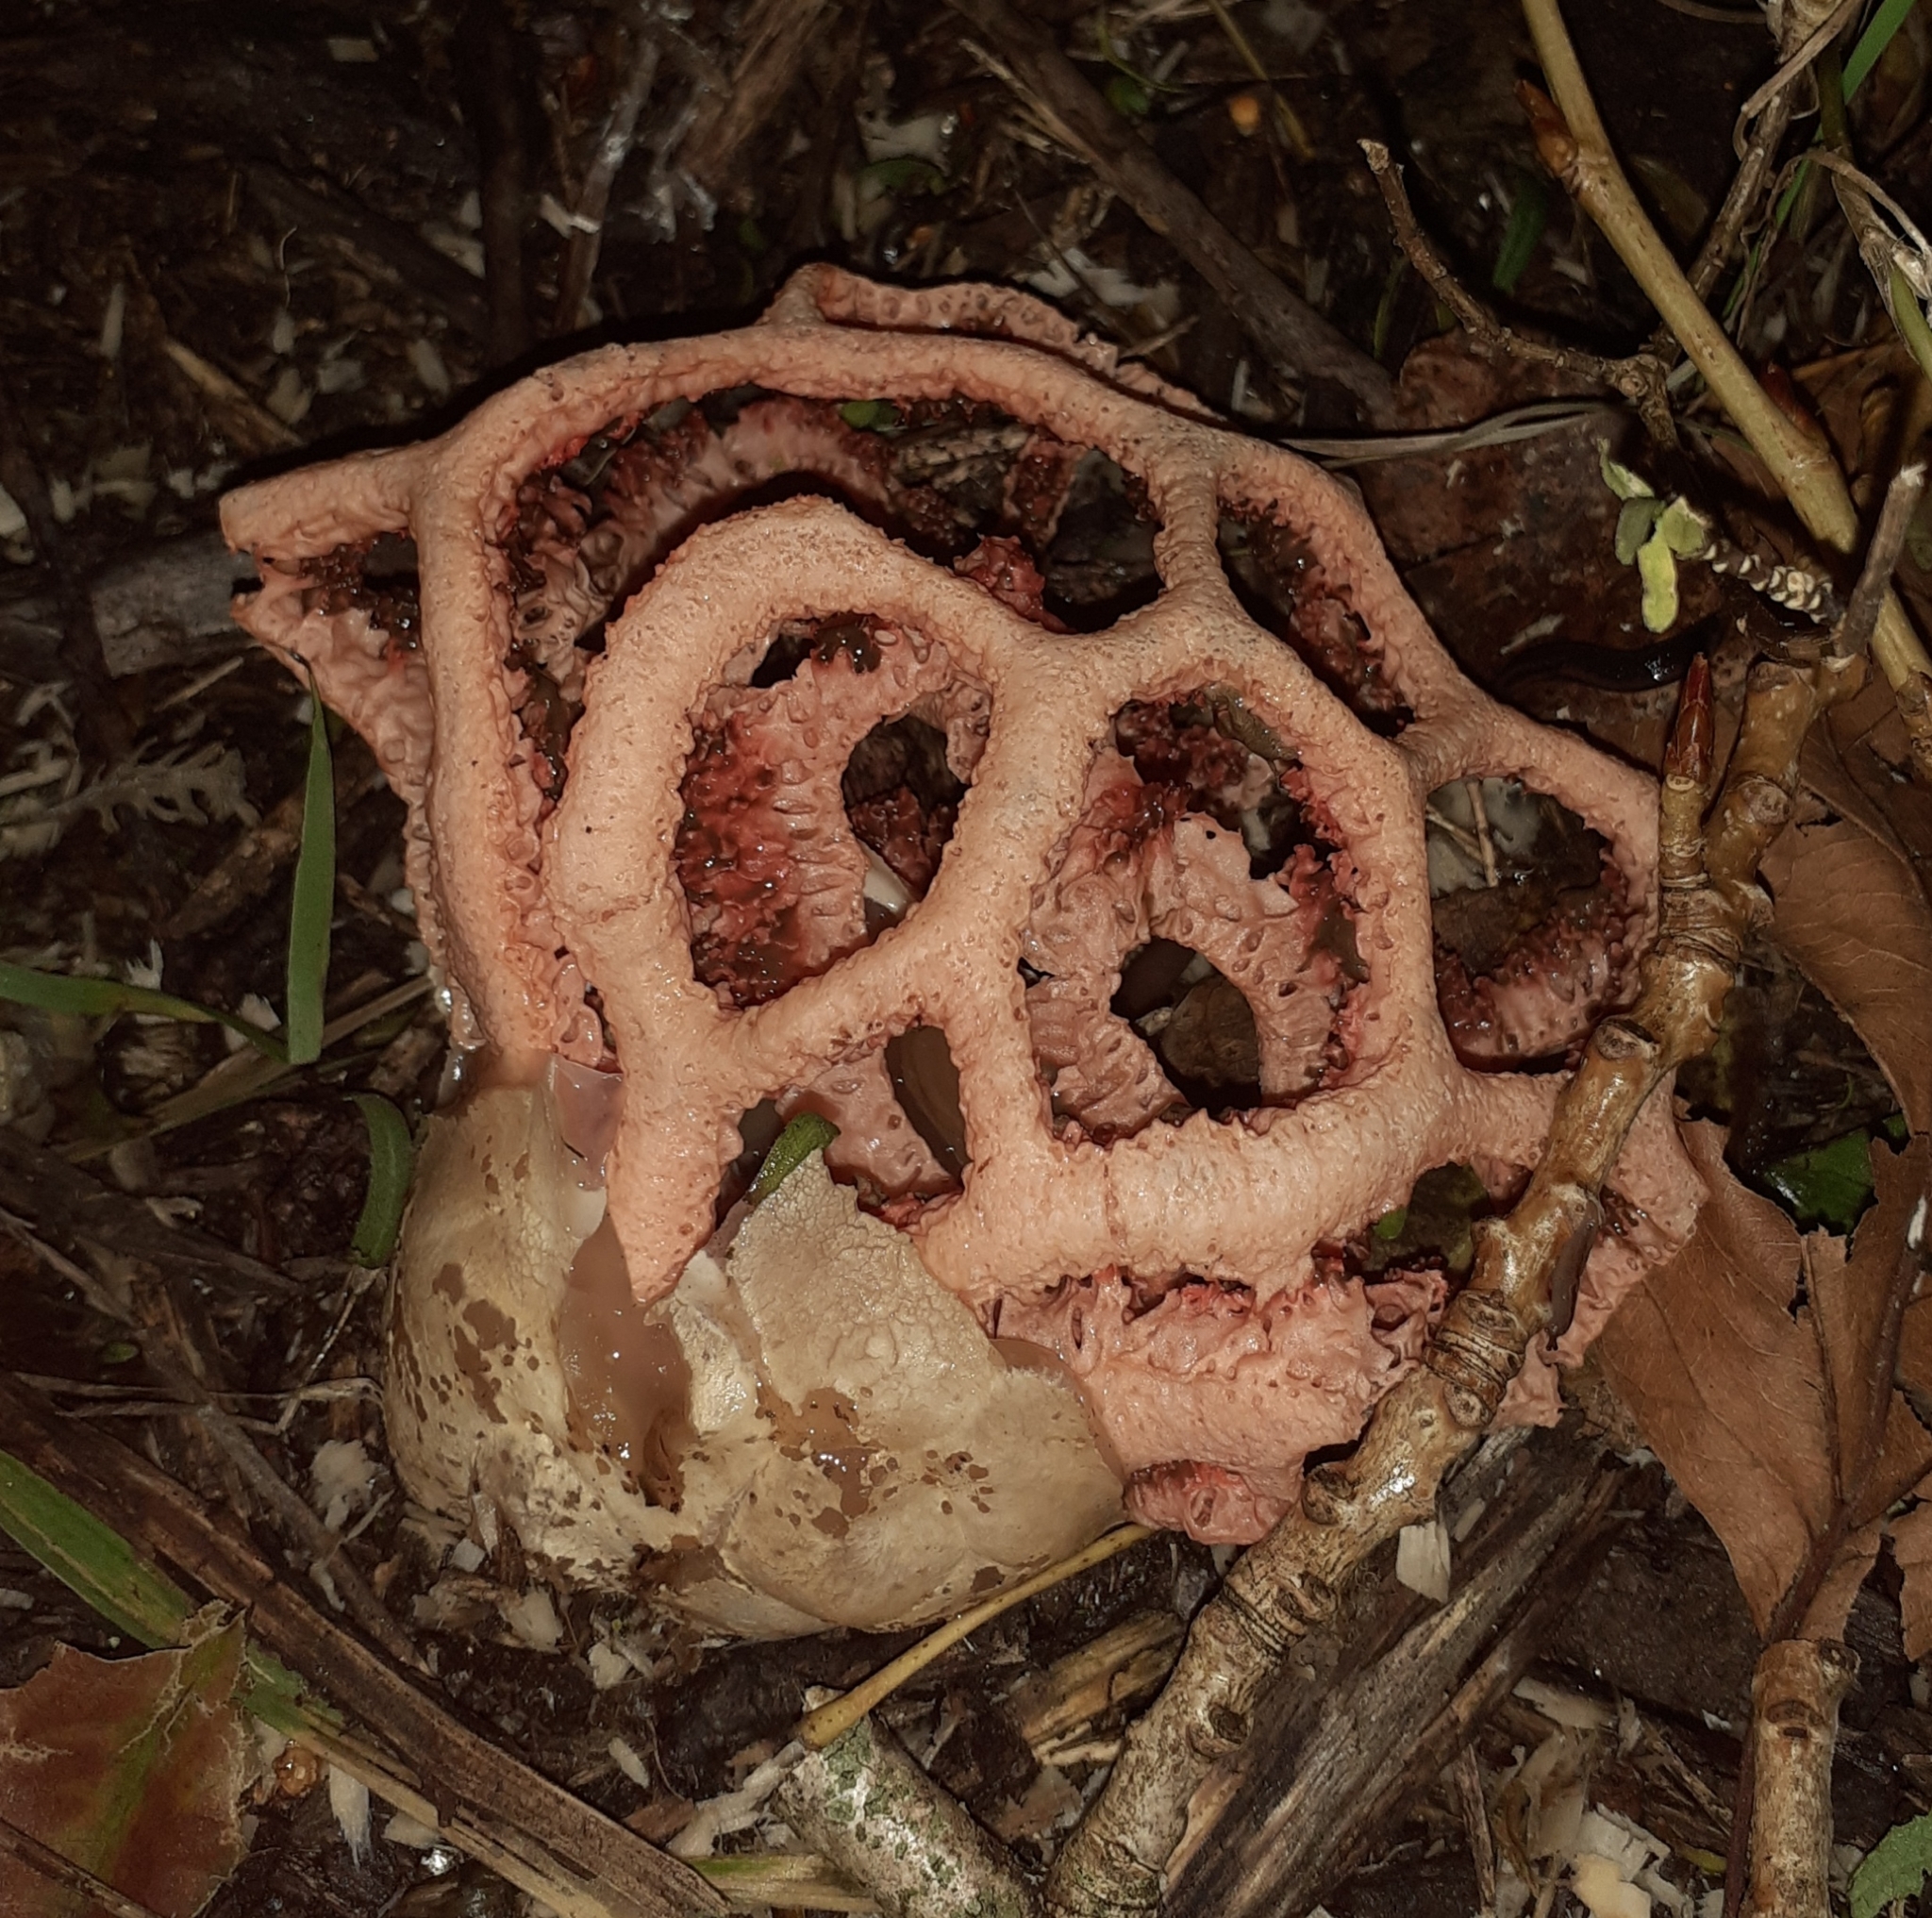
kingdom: Fungi
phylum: Basidiomycota
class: Agaricomycetes
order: Phallales
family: Phallaceae
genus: Clathrus
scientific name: Clathrus ruber
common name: Red cage
